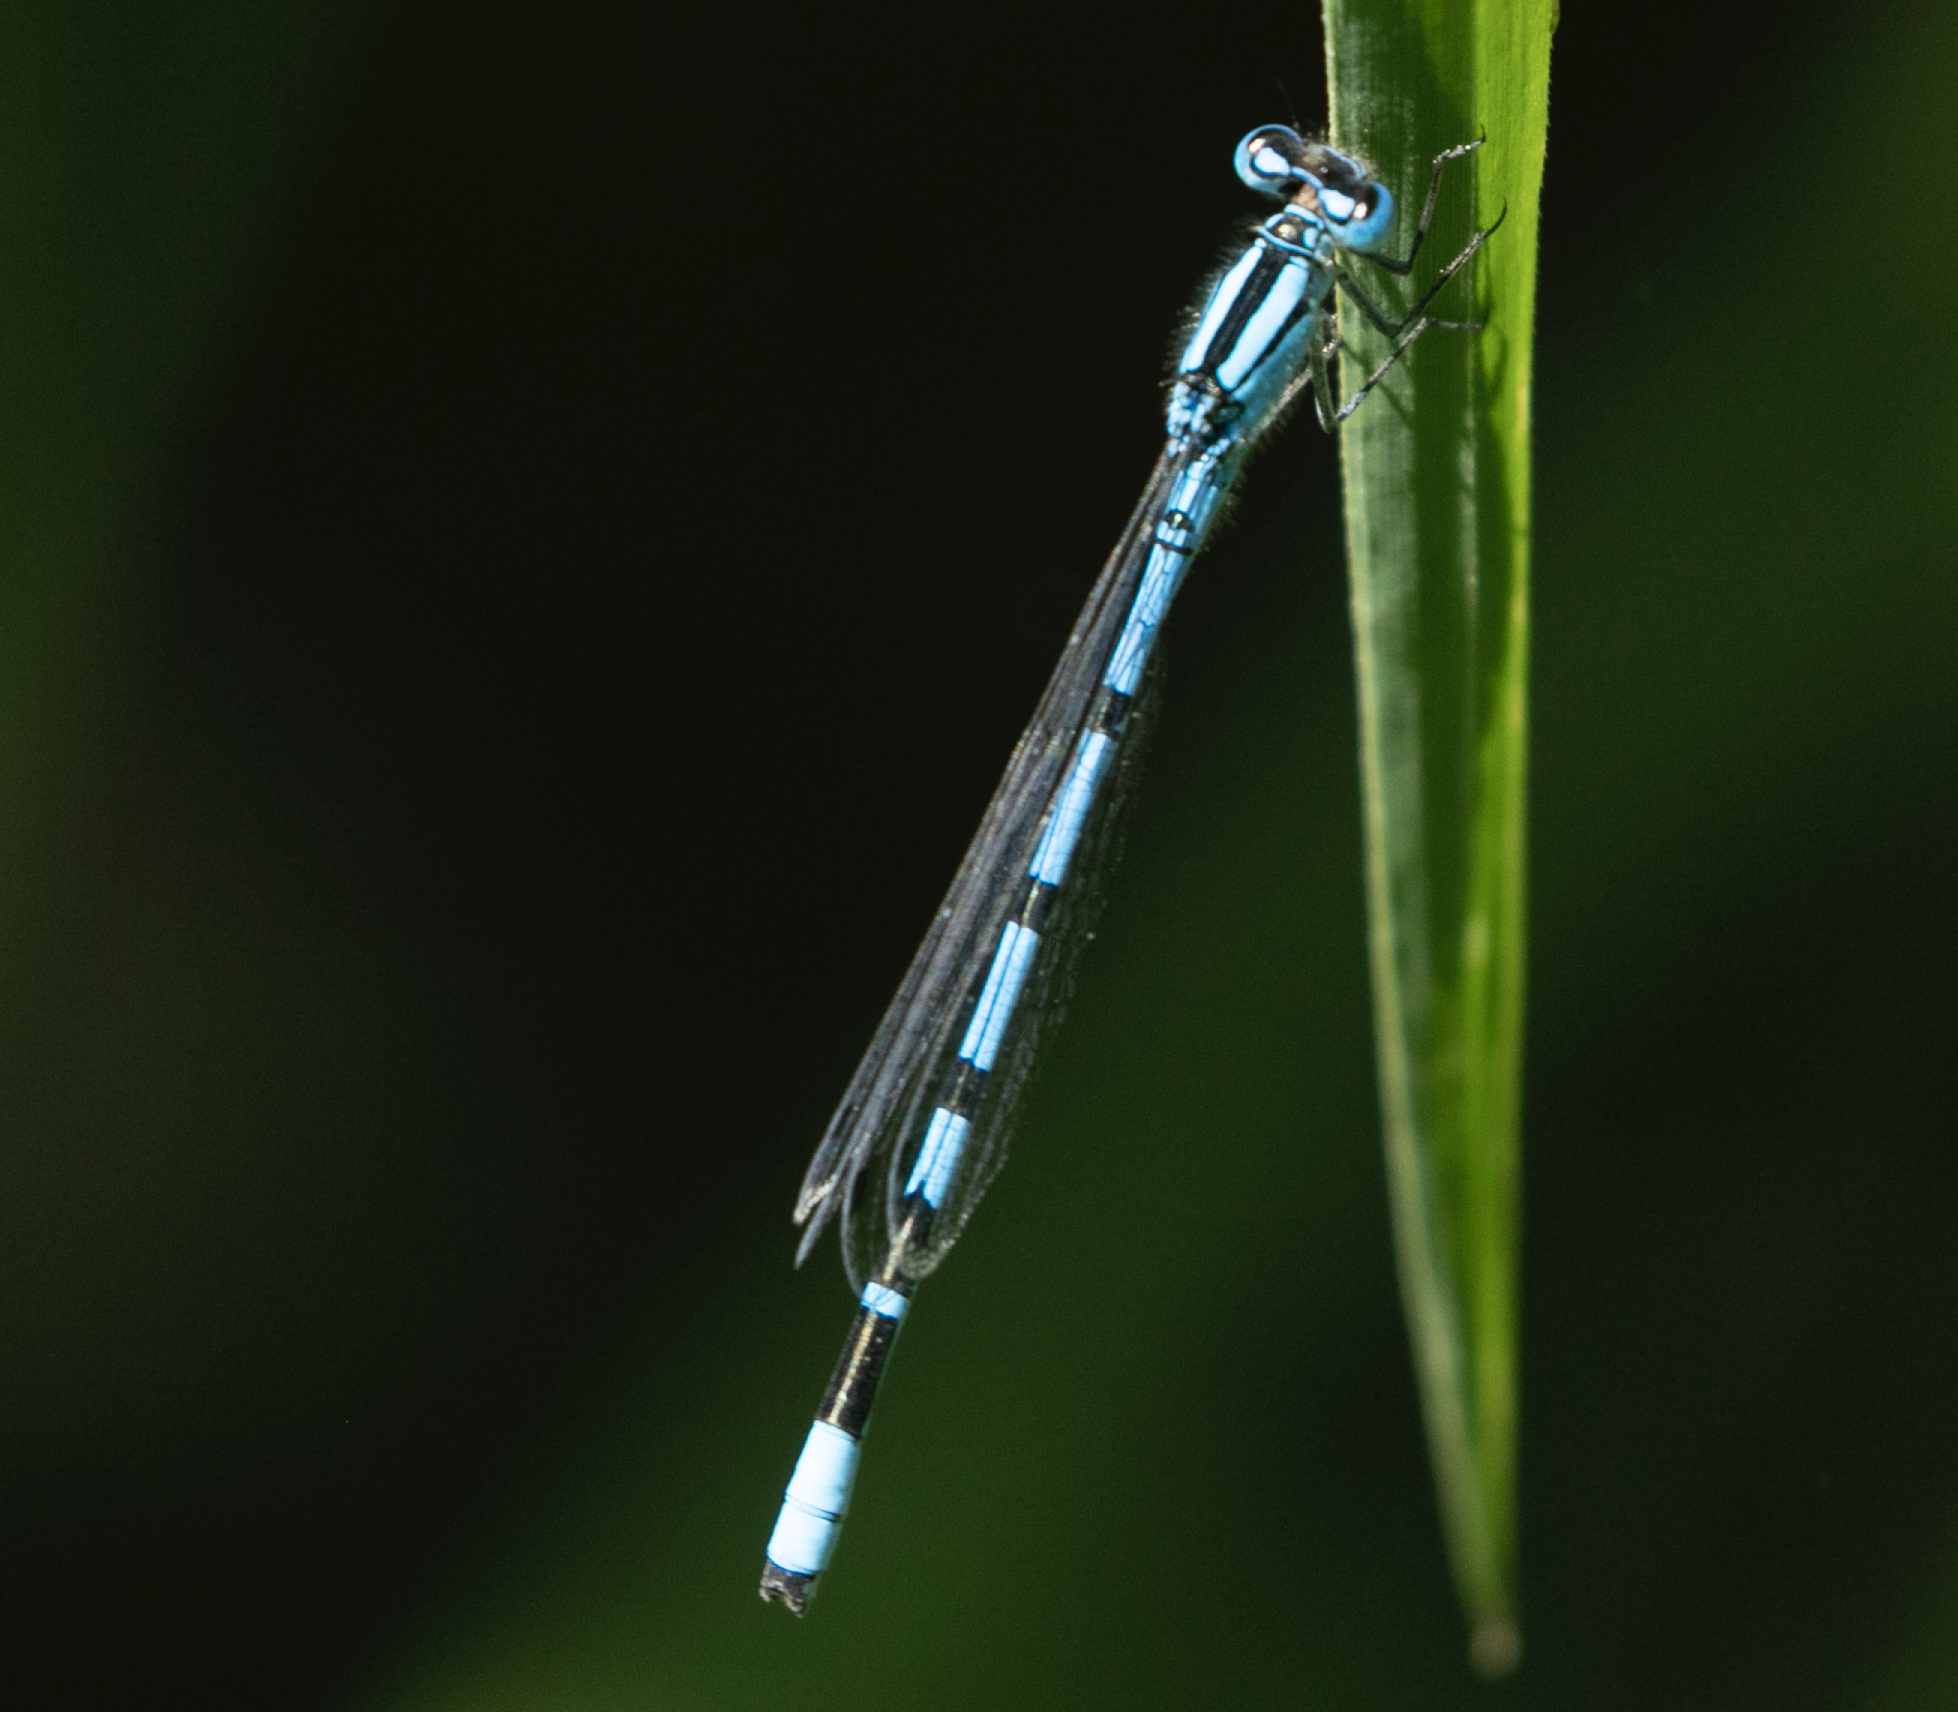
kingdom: Animalia
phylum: Arthropoda
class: Insecta
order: Odonata
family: Coenagrionidae
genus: Enallagma
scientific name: Enallagma cyathigerum
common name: Common blue damselfly
